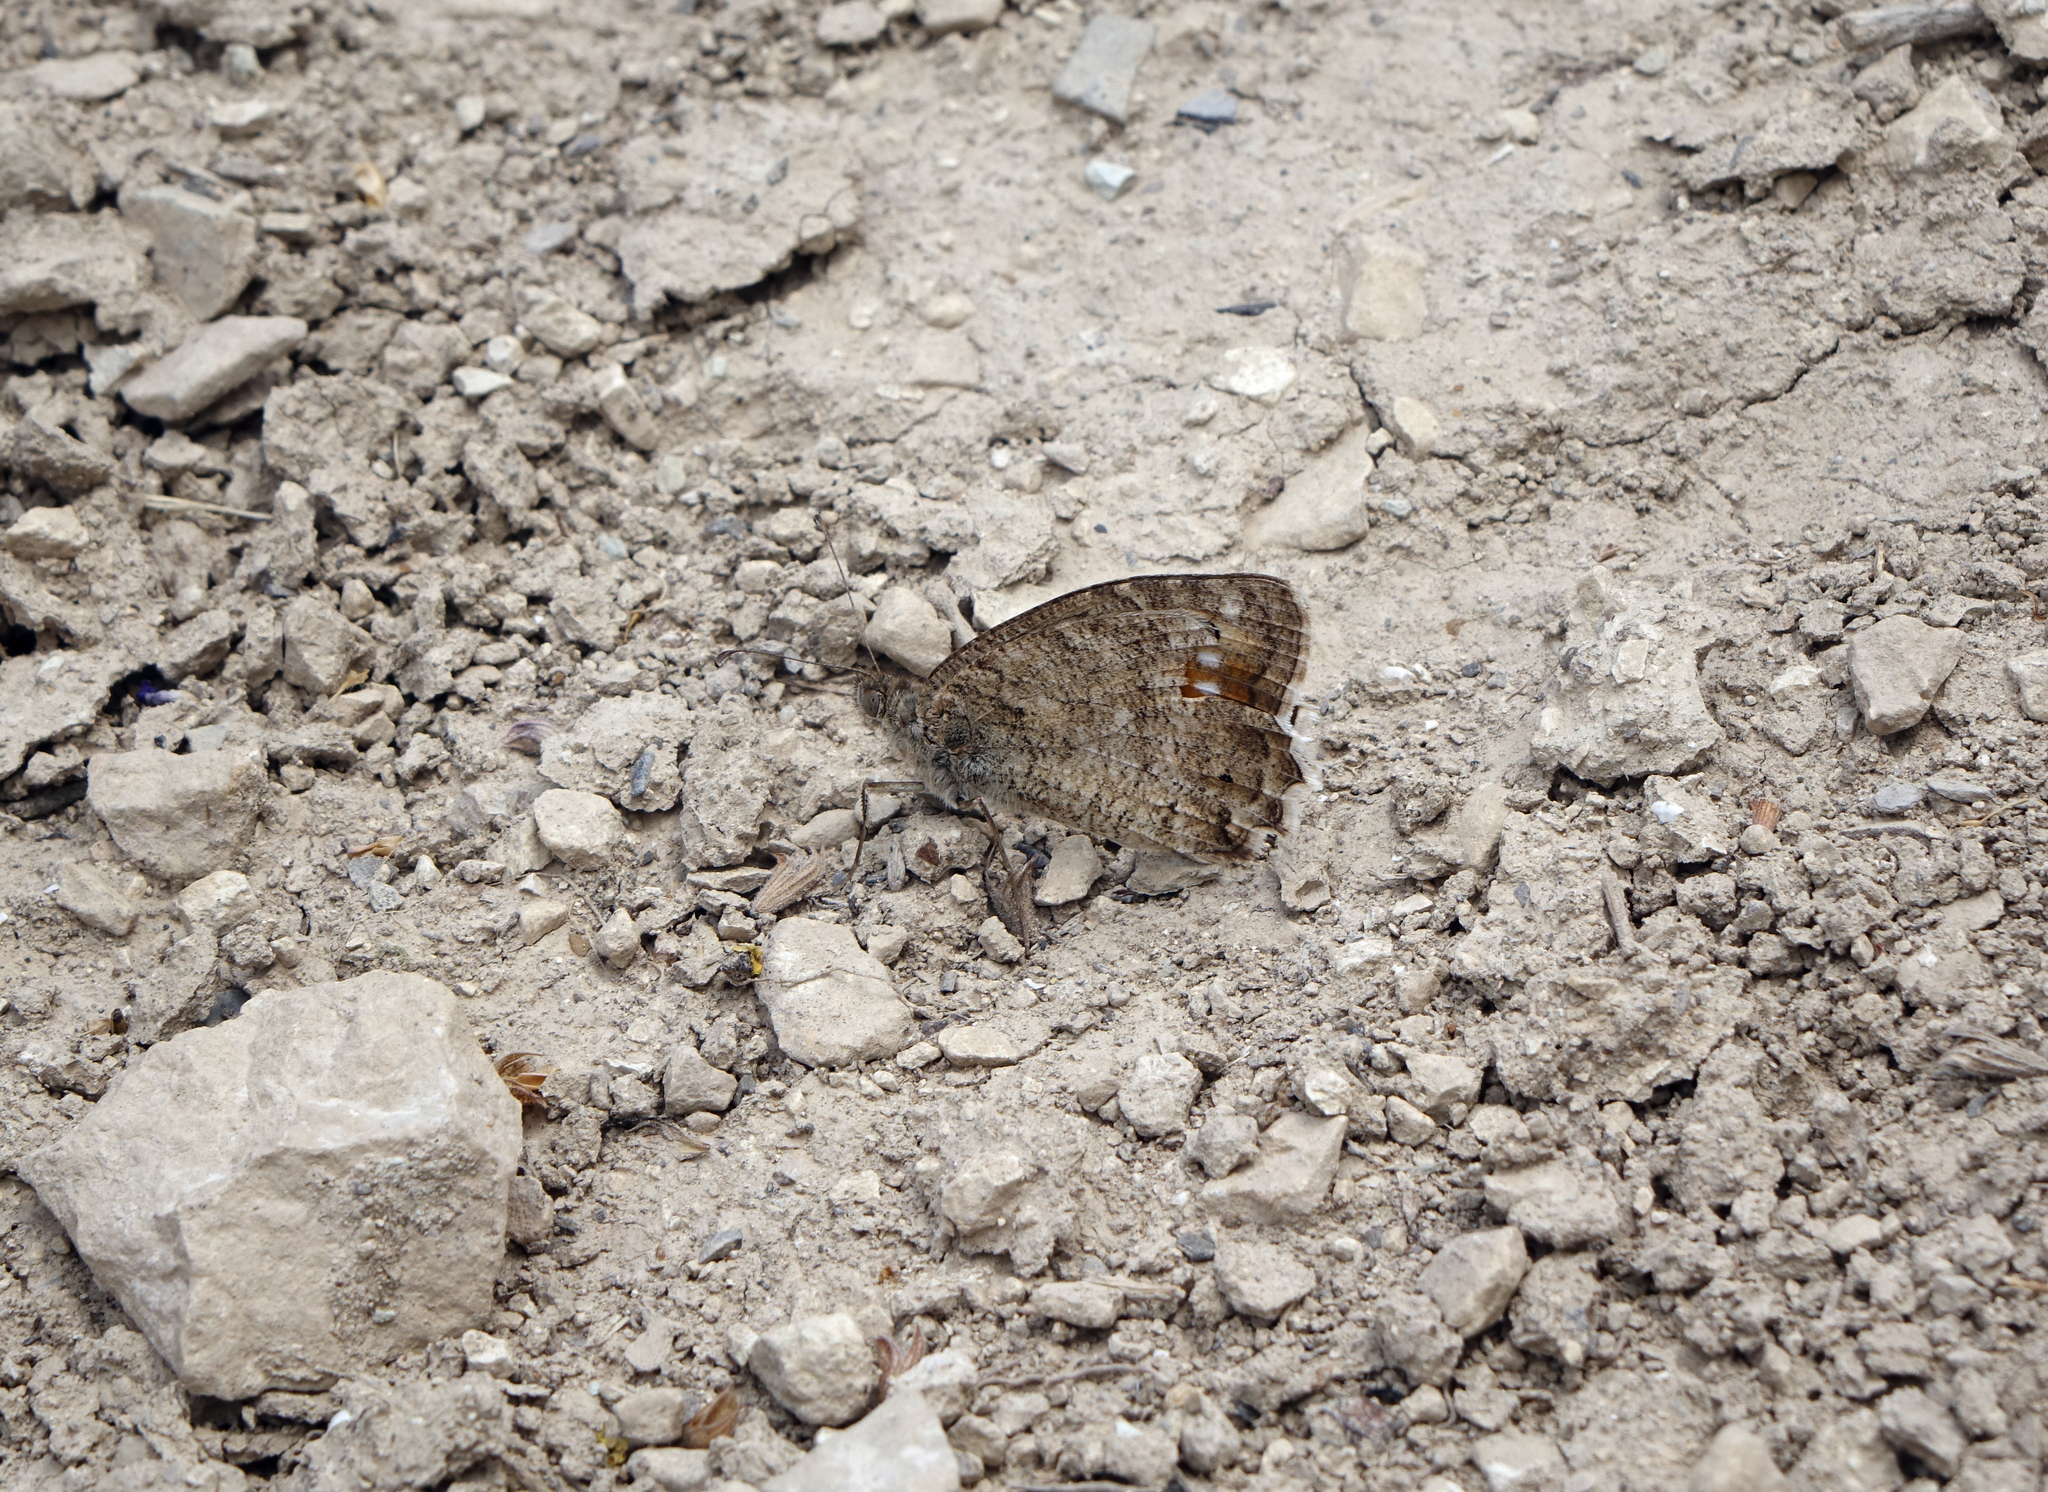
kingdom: Animalia
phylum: Arthropoda
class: Insecta
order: Lepidoptera
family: Nymphalidae
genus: Pseudochazara
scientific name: Pseudochazara pelopea
